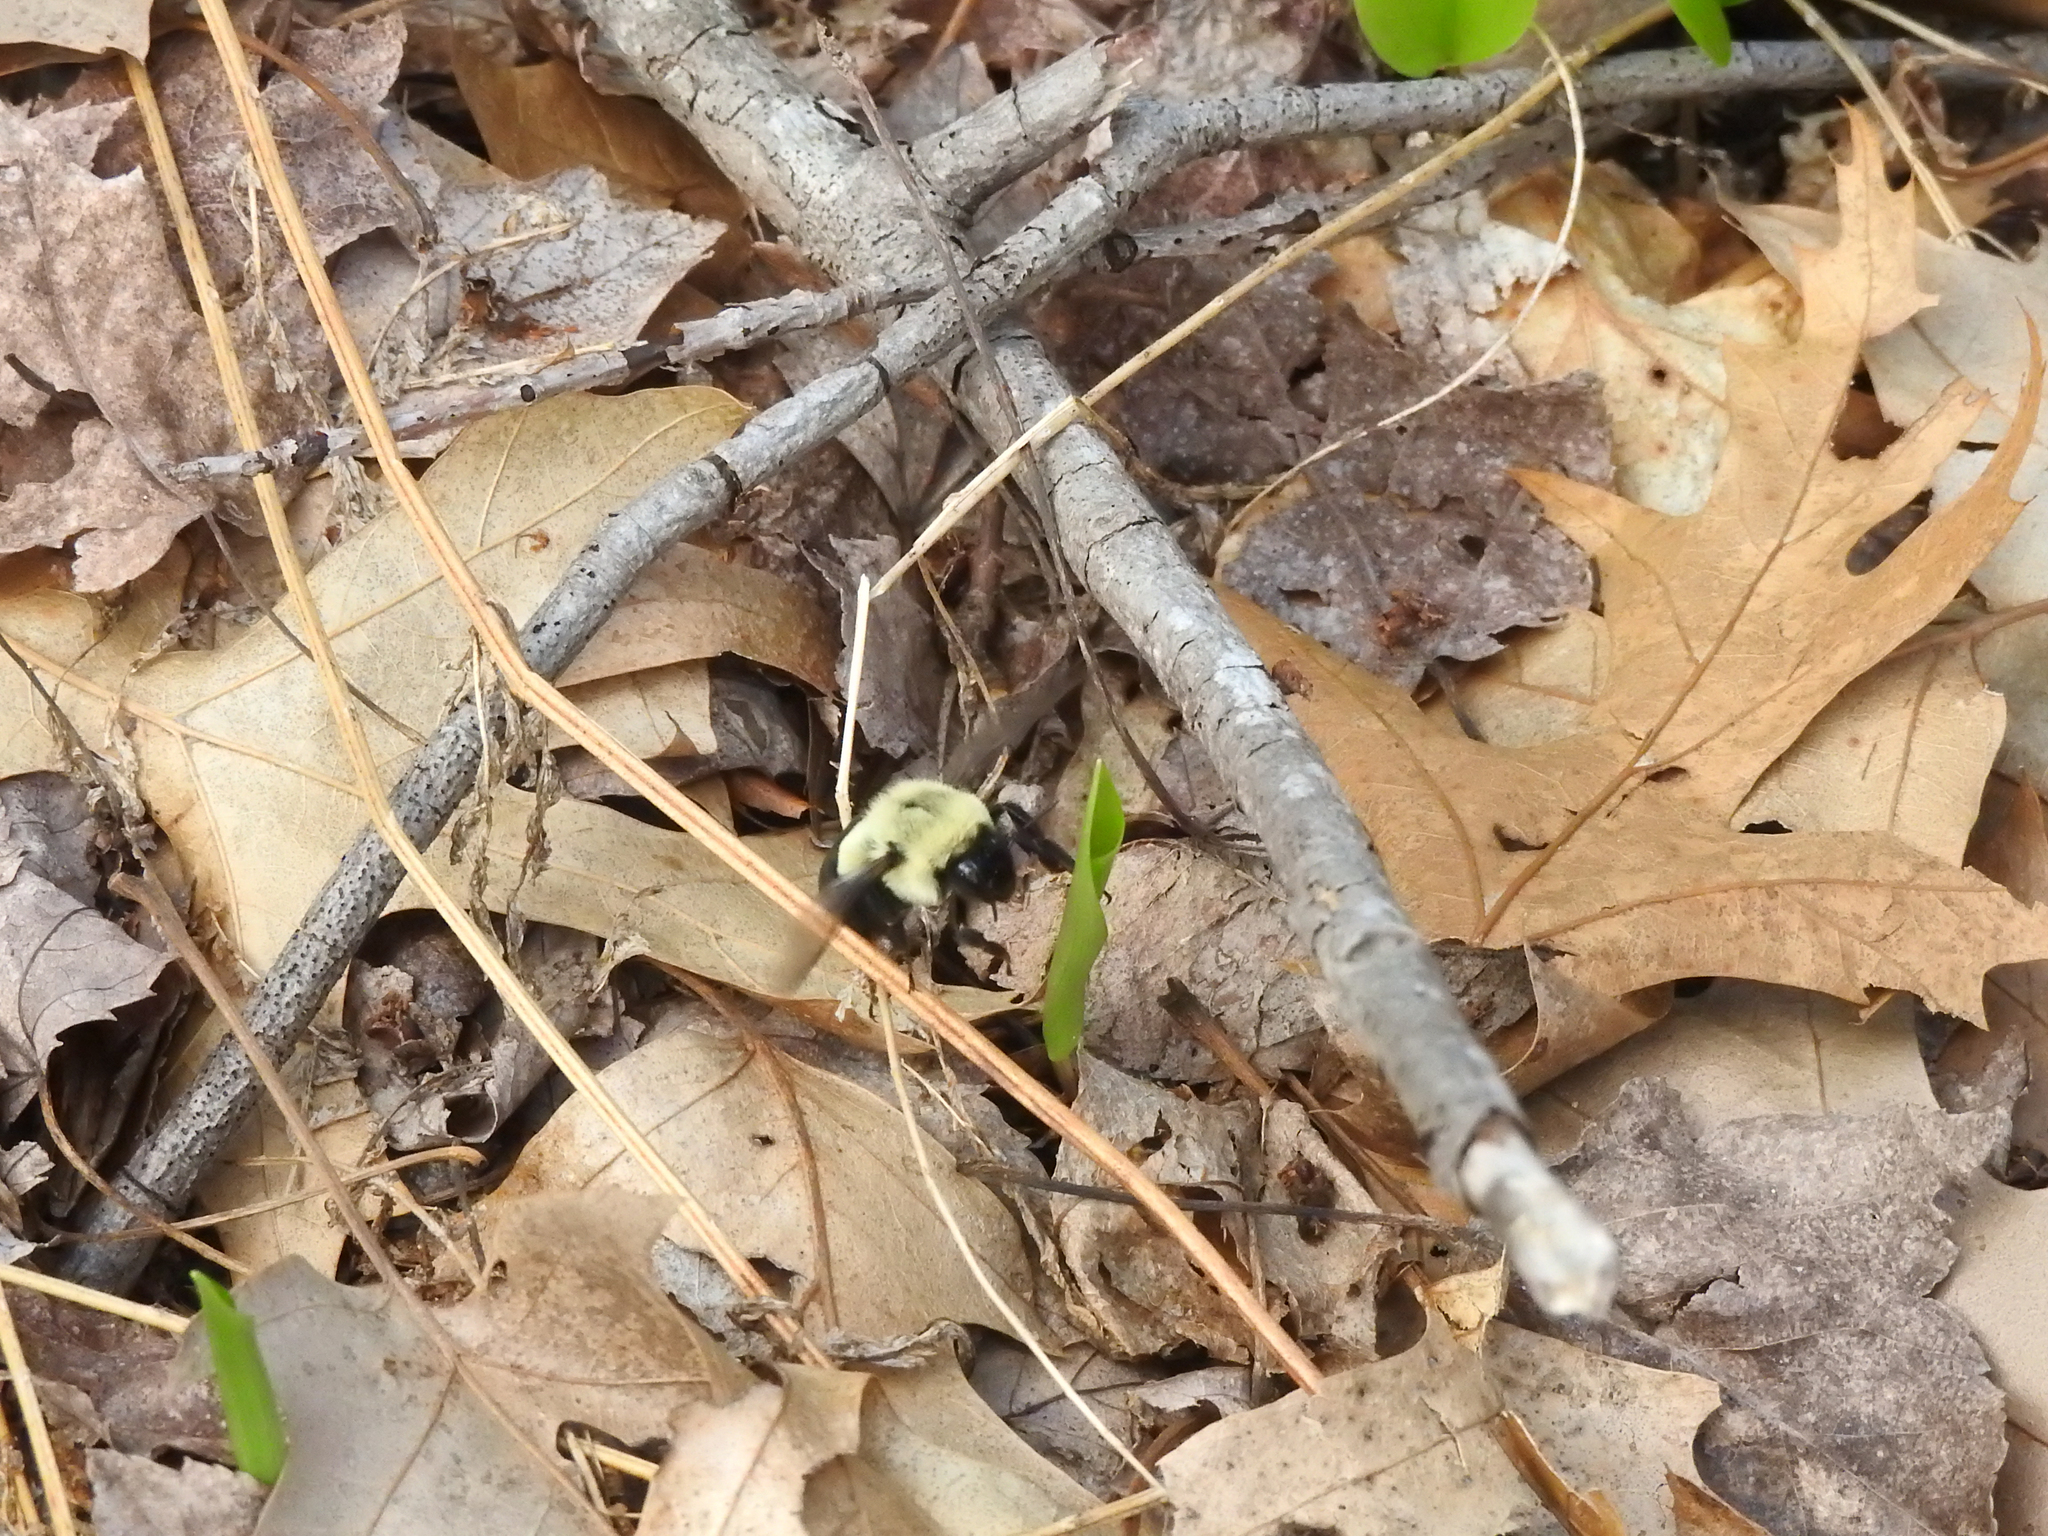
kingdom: Animalia
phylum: Arthropoda
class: Insecta
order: Hymenoptera
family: Apidae
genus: Bombus
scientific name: Bombus impatiens
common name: Common eastern bumble bee
